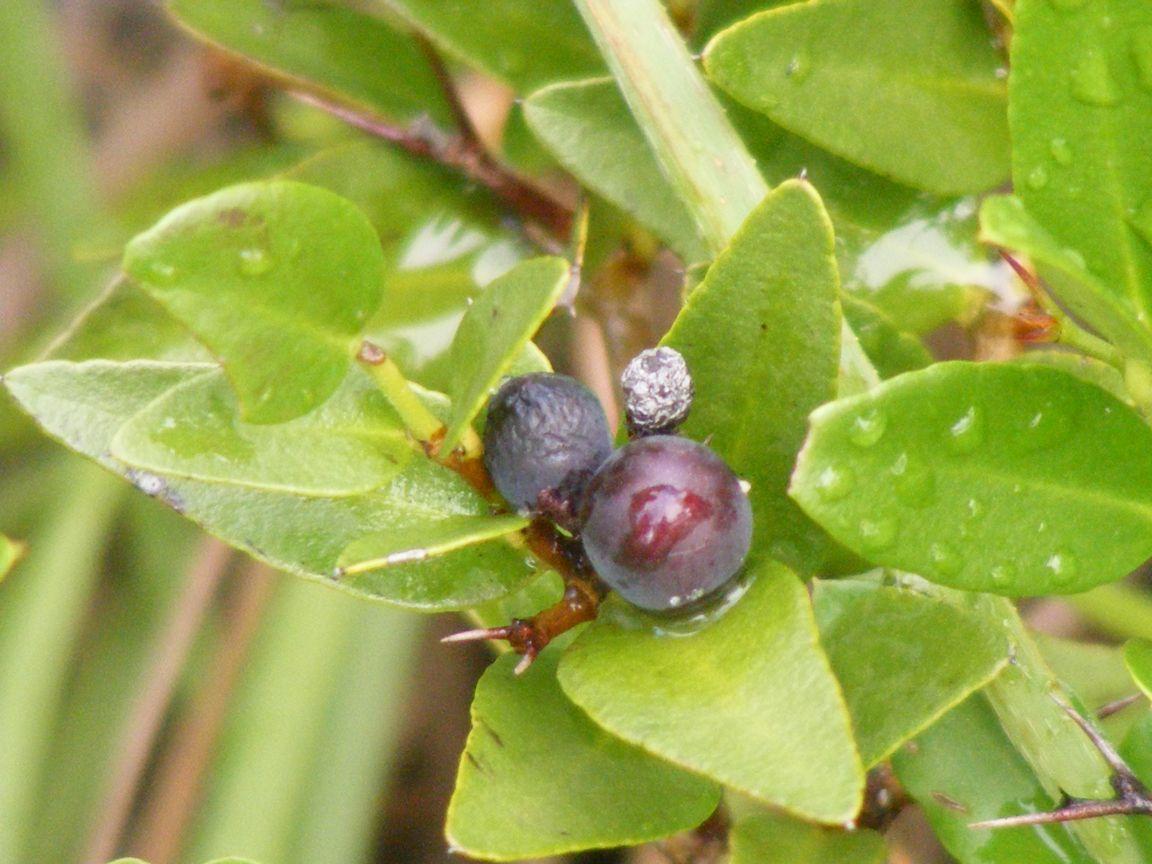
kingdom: Plantae
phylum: Tracheophyta
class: Magnoliopsida
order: Gentianales
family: Apocynaceae
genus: Carissa
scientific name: Carissa bispinosa
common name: Forest num-num
